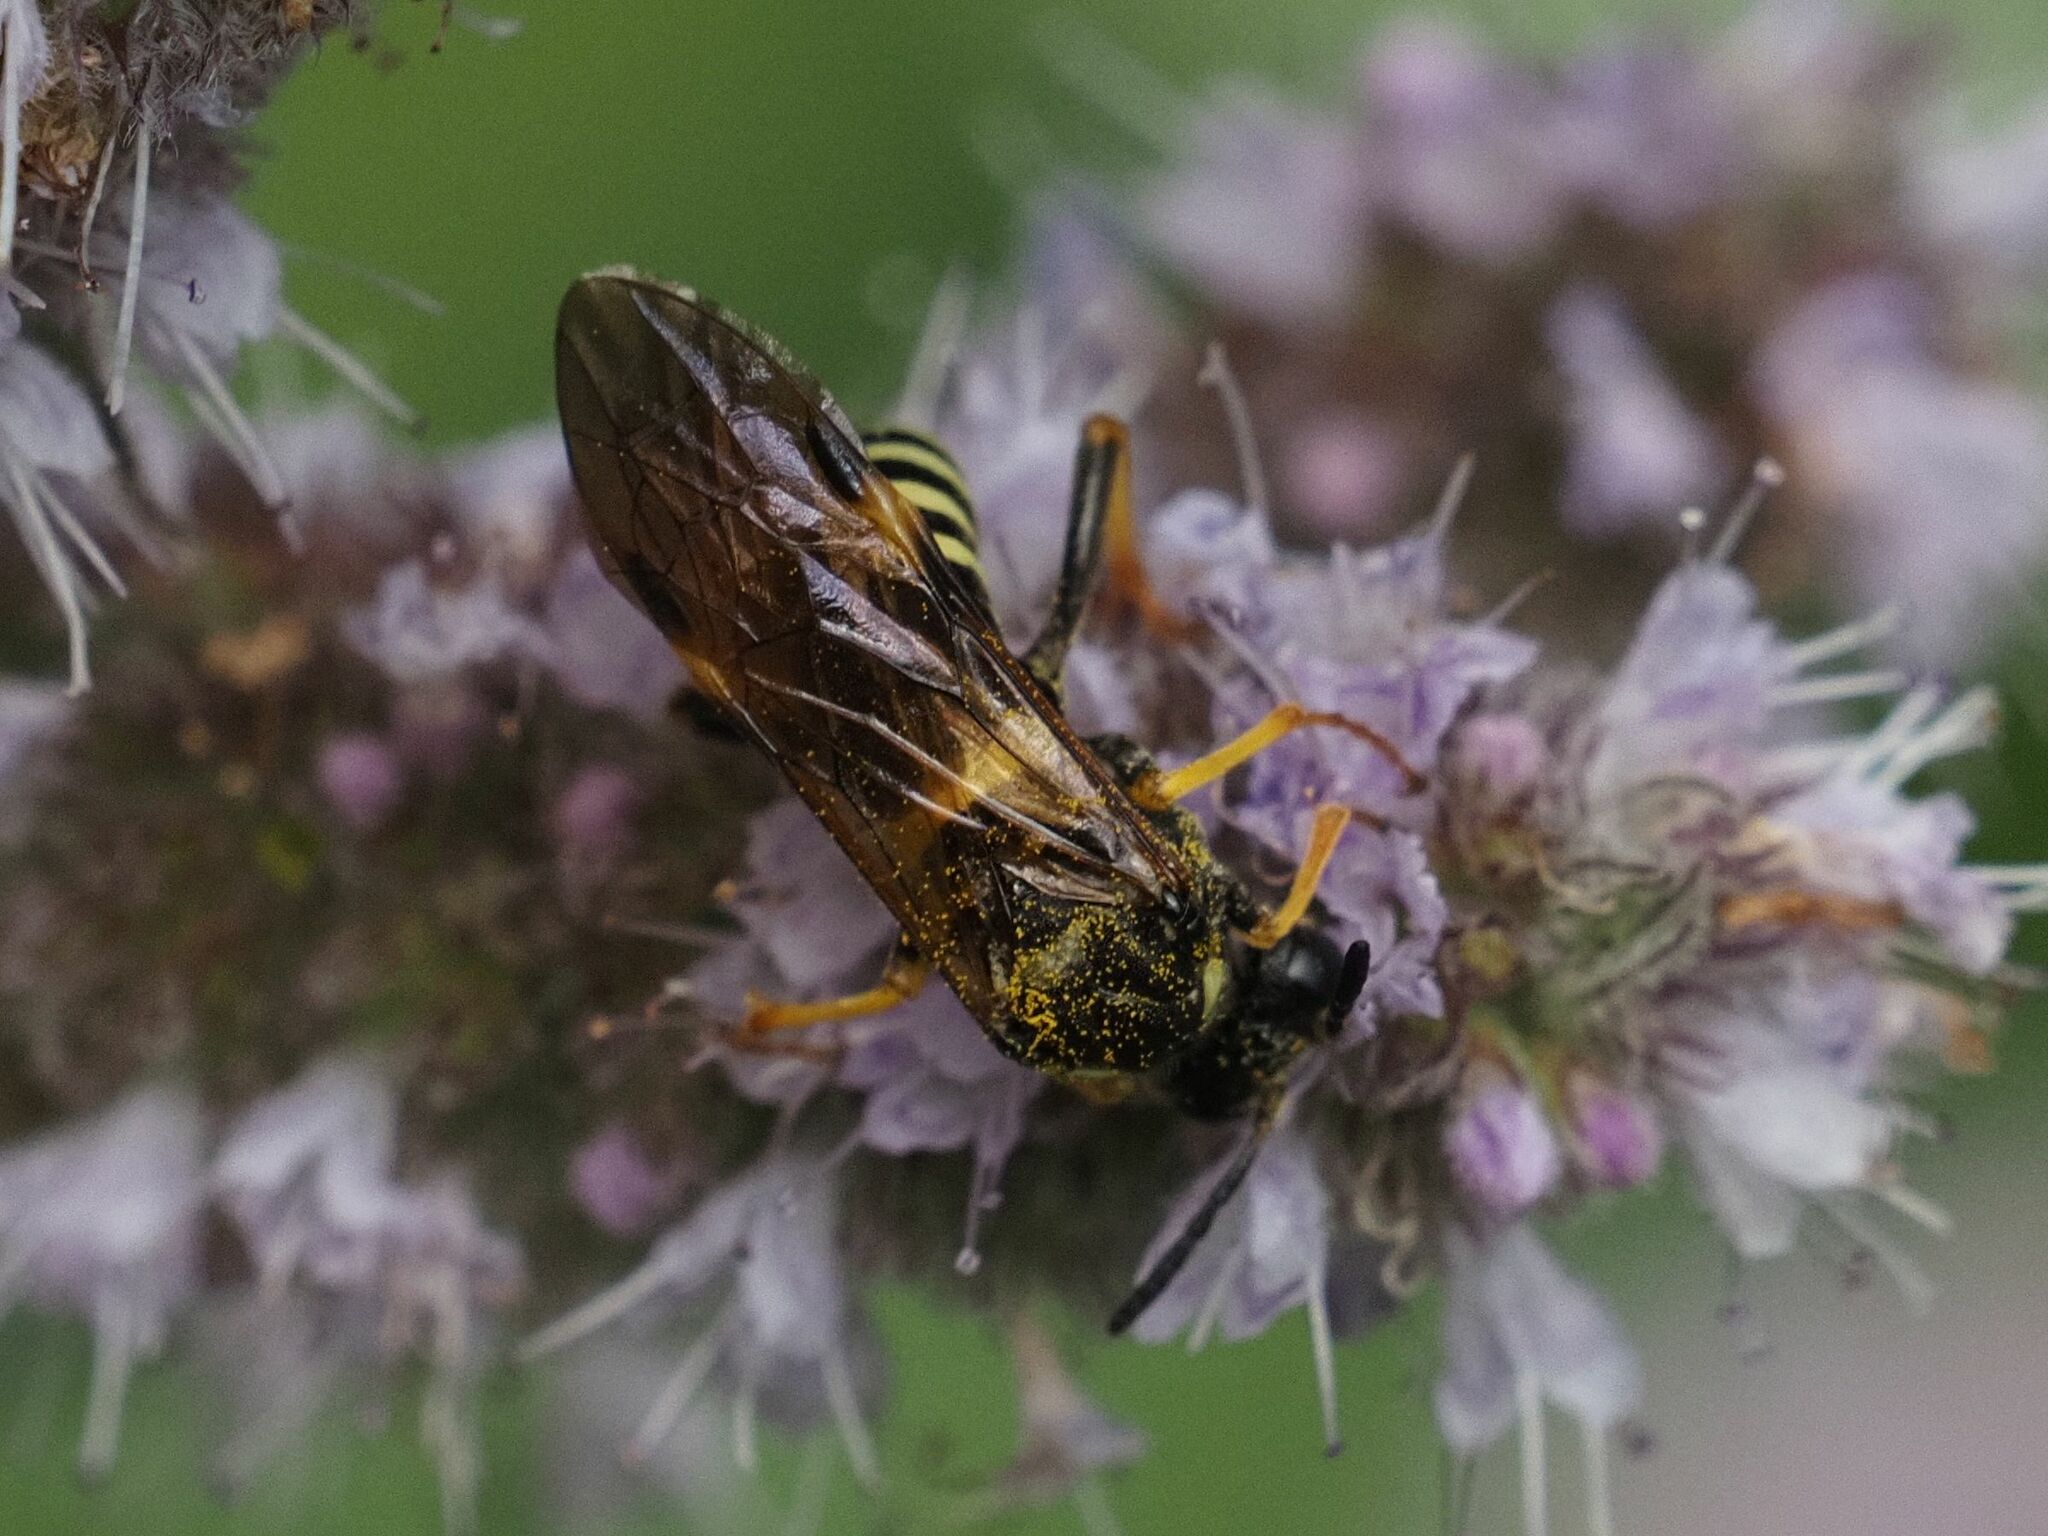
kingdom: Animalia
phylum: Arthropoda
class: Insecta
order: Hymenoptera
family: Tenthredinidae
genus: Tenthredo
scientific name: Tenthredo koehleri
